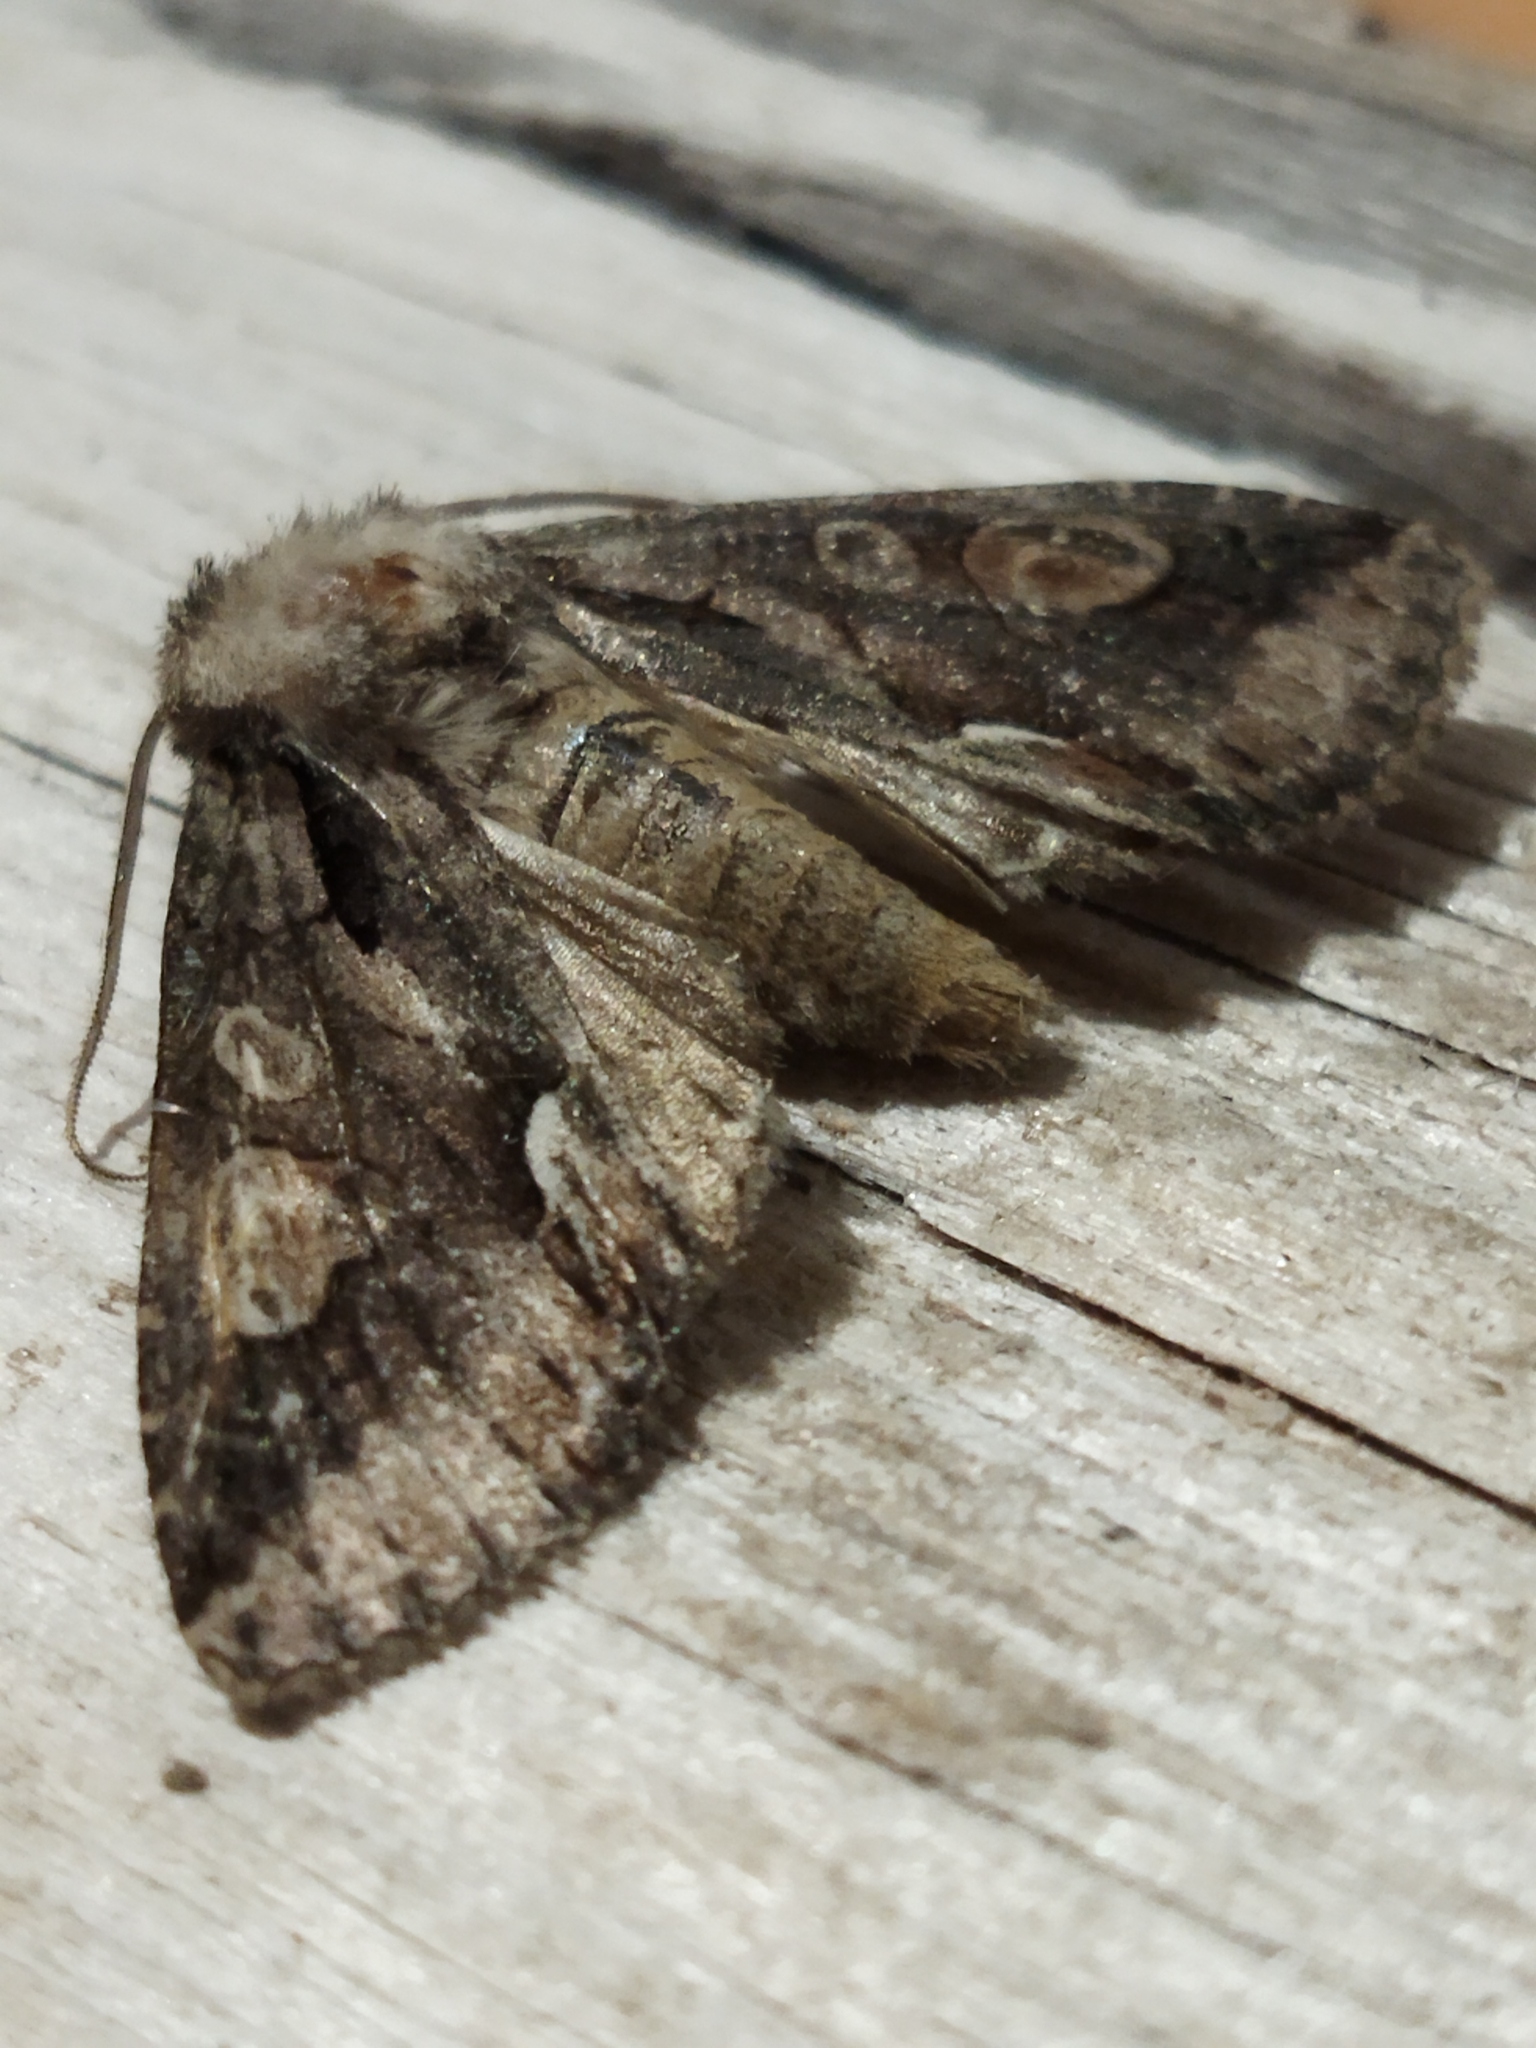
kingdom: Animalia
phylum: Arthropoda
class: Insecta
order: Lepidoptera
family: Noctuidae
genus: Allophyes
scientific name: Allophyes oxyacanthae
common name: Green-brindled crescent
